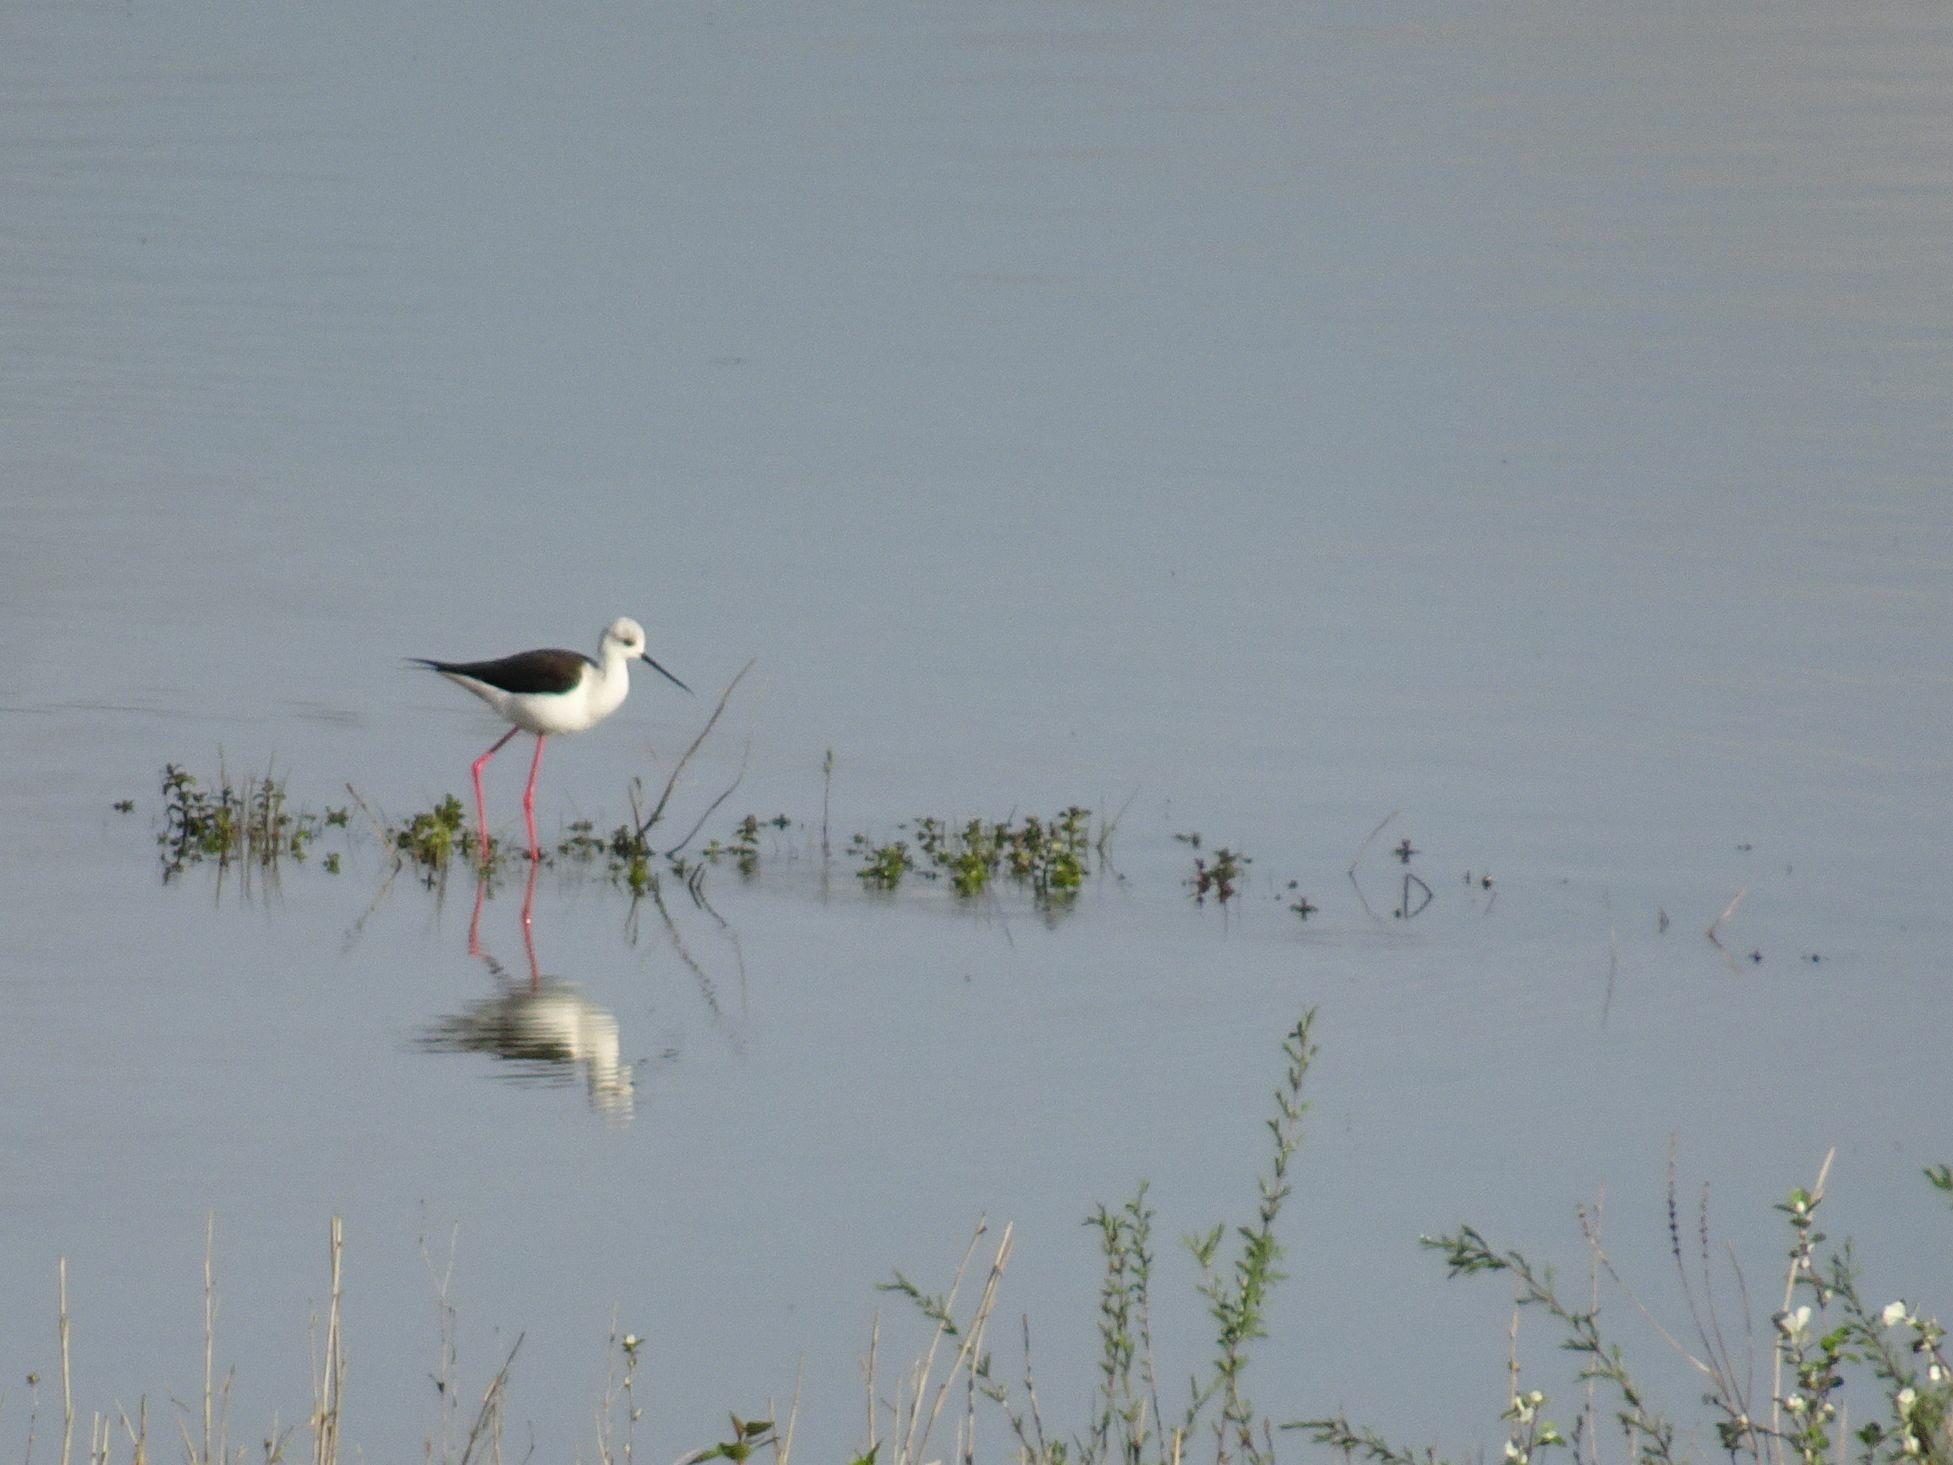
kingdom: Animalia
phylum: Chordata
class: Aves
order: Charadriiformes
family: Recurvirostridae
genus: Himantopus
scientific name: Himantopus himantopus
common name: Black-winged stilt
